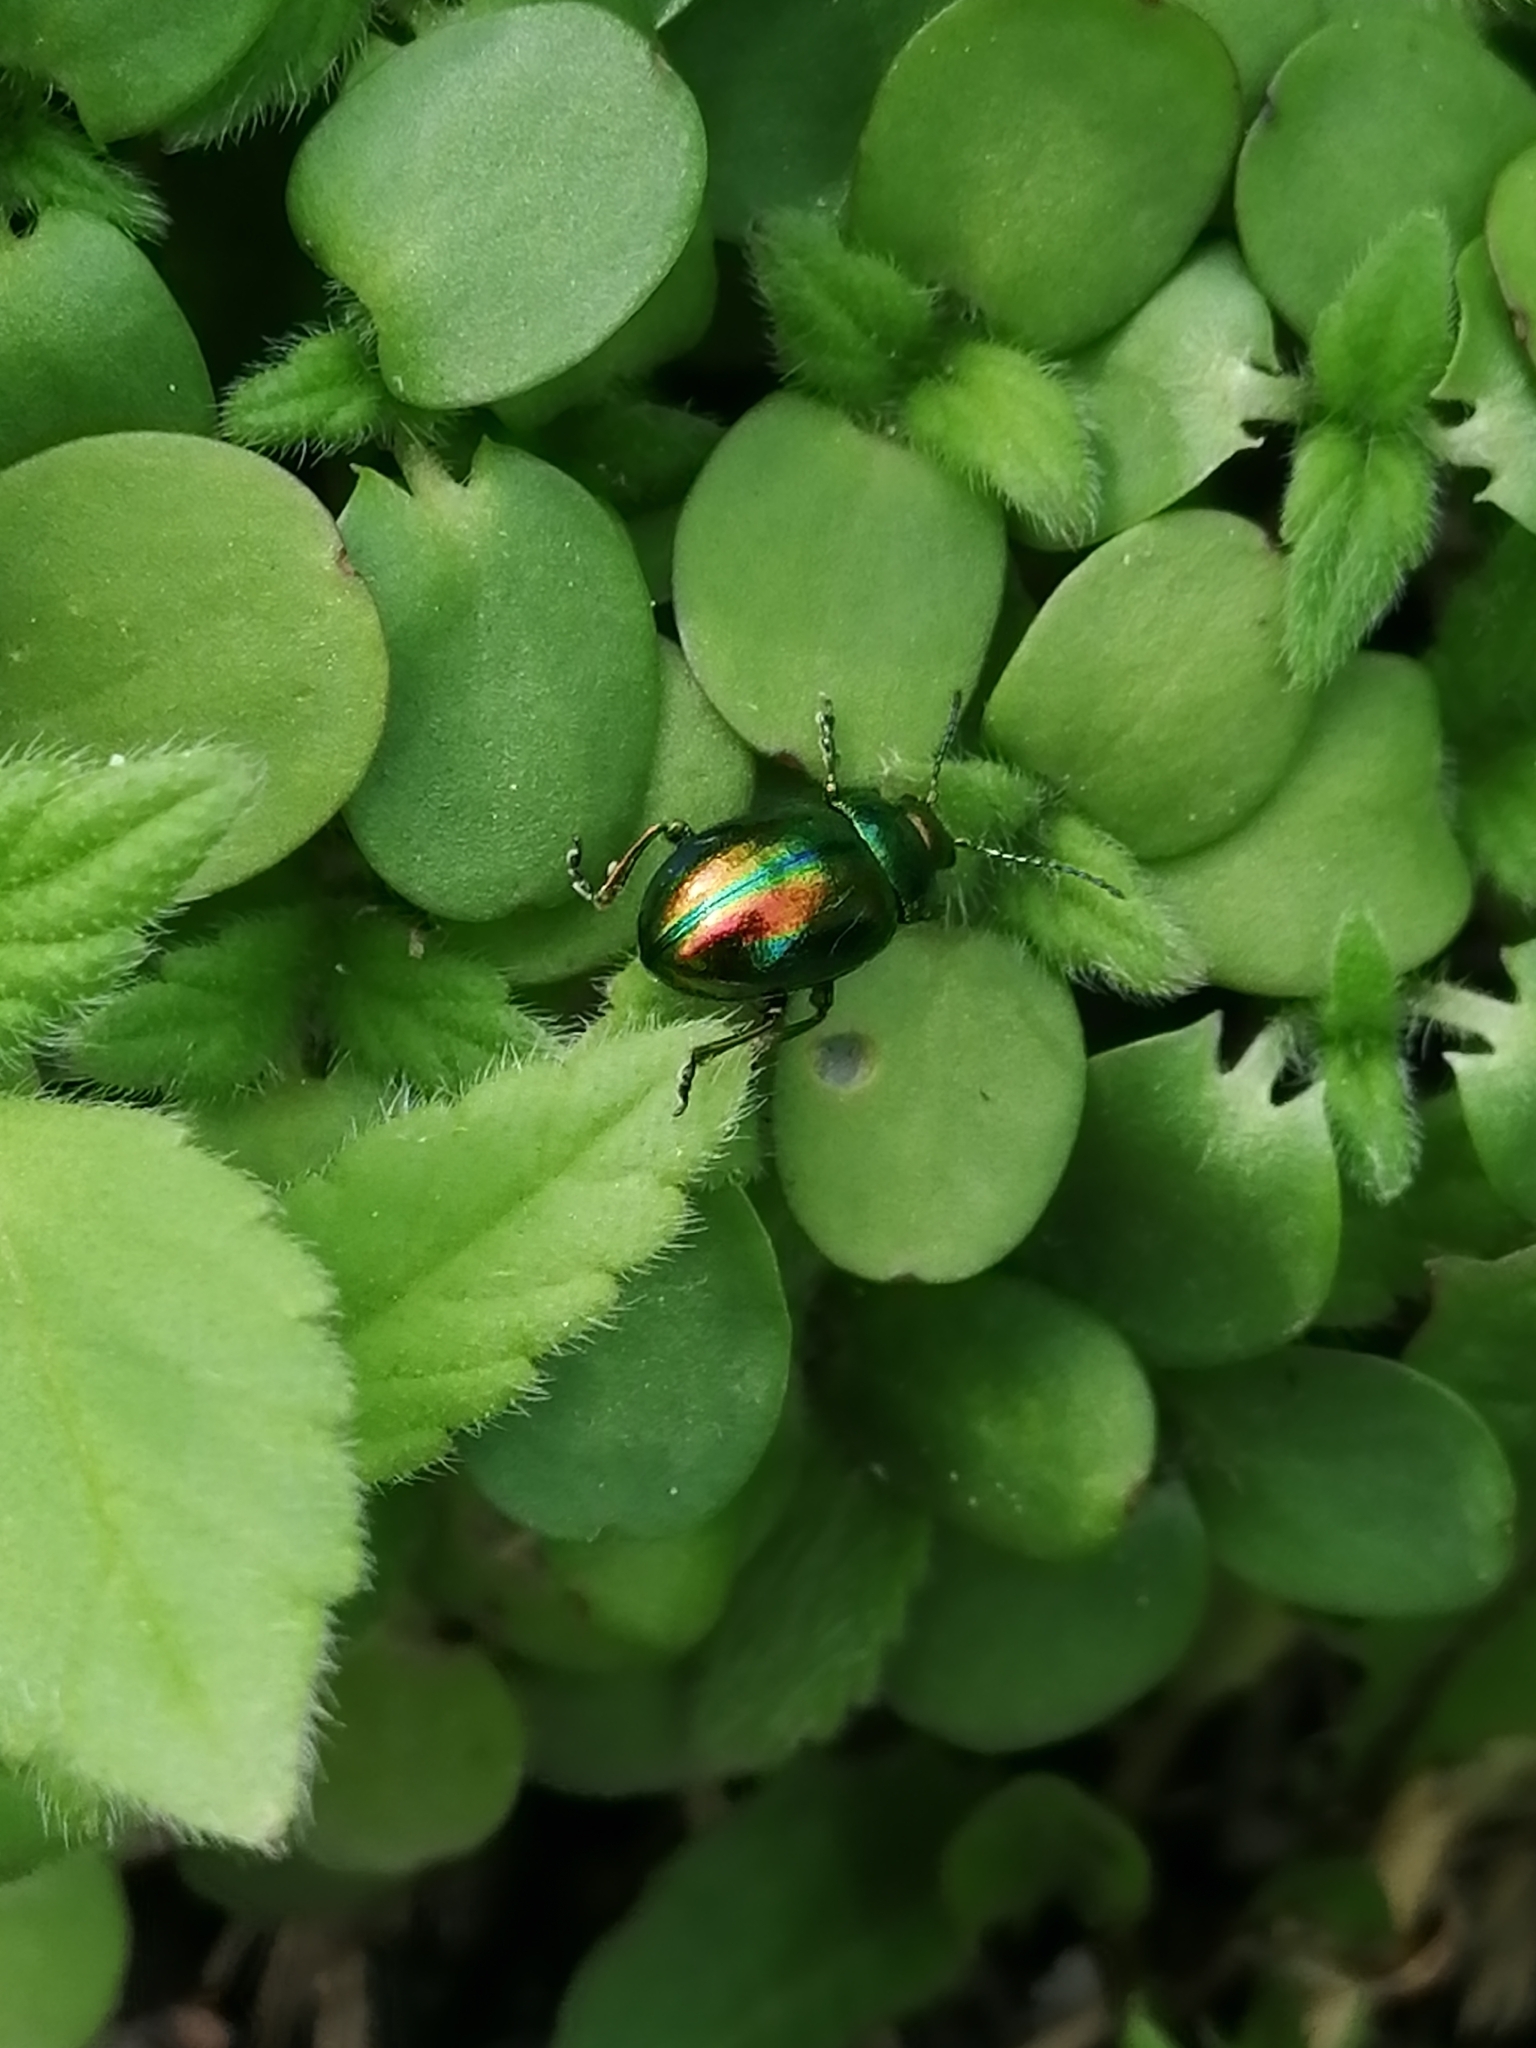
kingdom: Animalia
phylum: Arthropoda
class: Insecta
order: Coleoptera
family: Chrysomelidae
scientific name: Chrysomelidae
